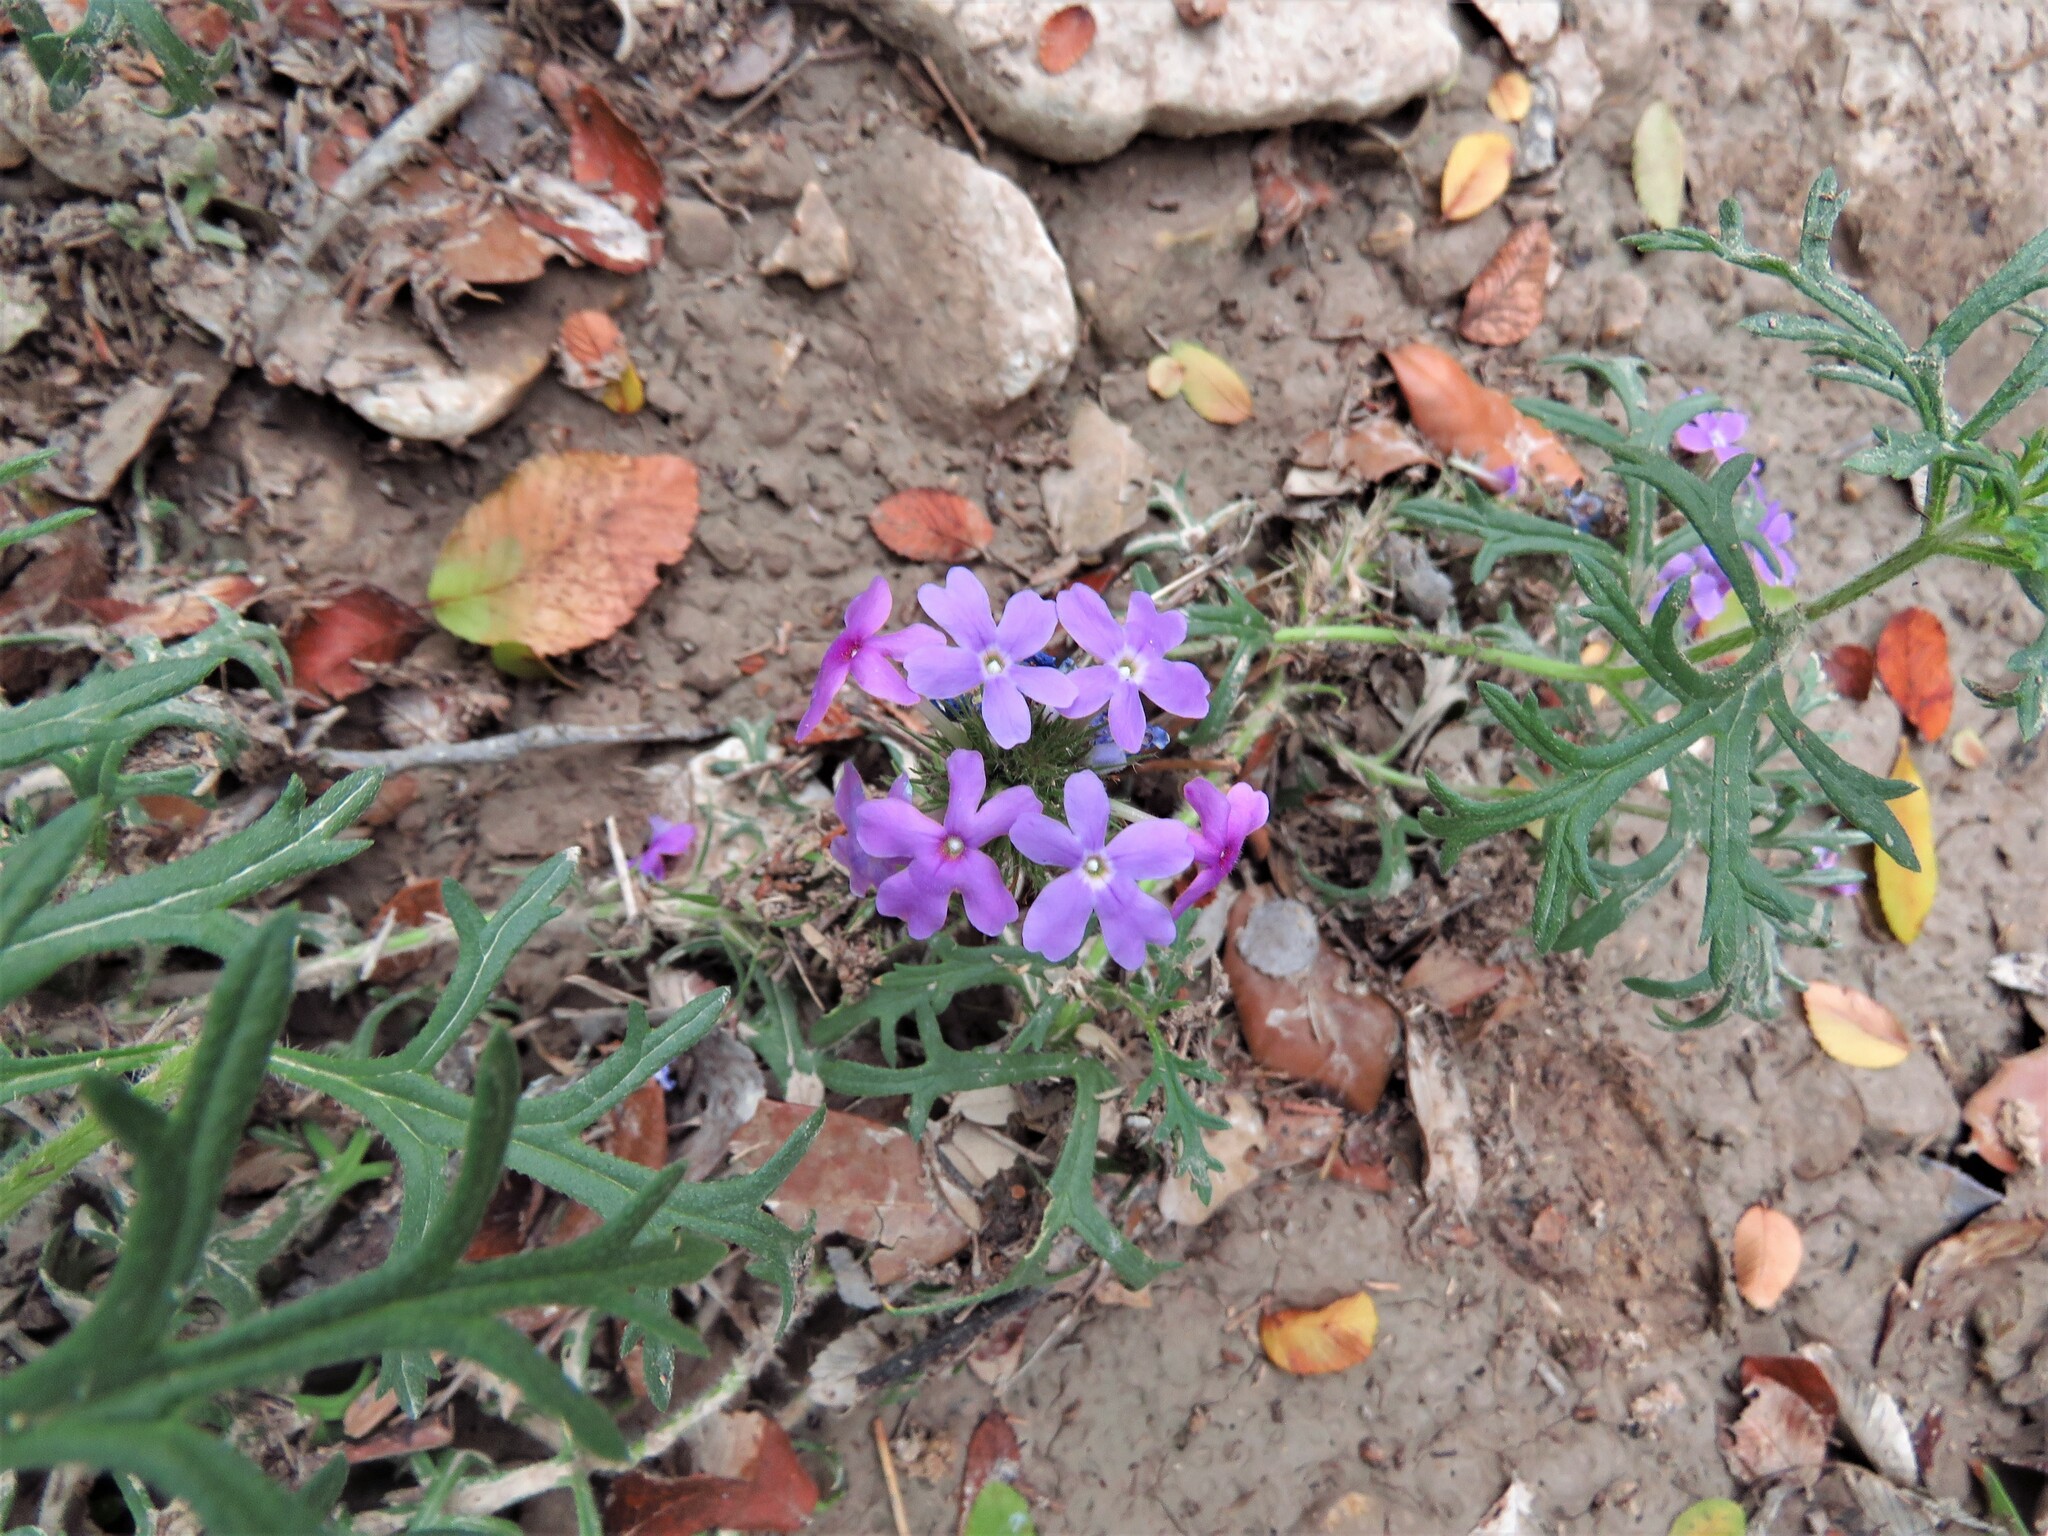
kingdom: Plantae
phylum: Tracheophyta
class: Magnoliopsida
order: Lamiales
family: Verbenaceae
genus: Verbena
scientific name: Verbena bipinnatifida
